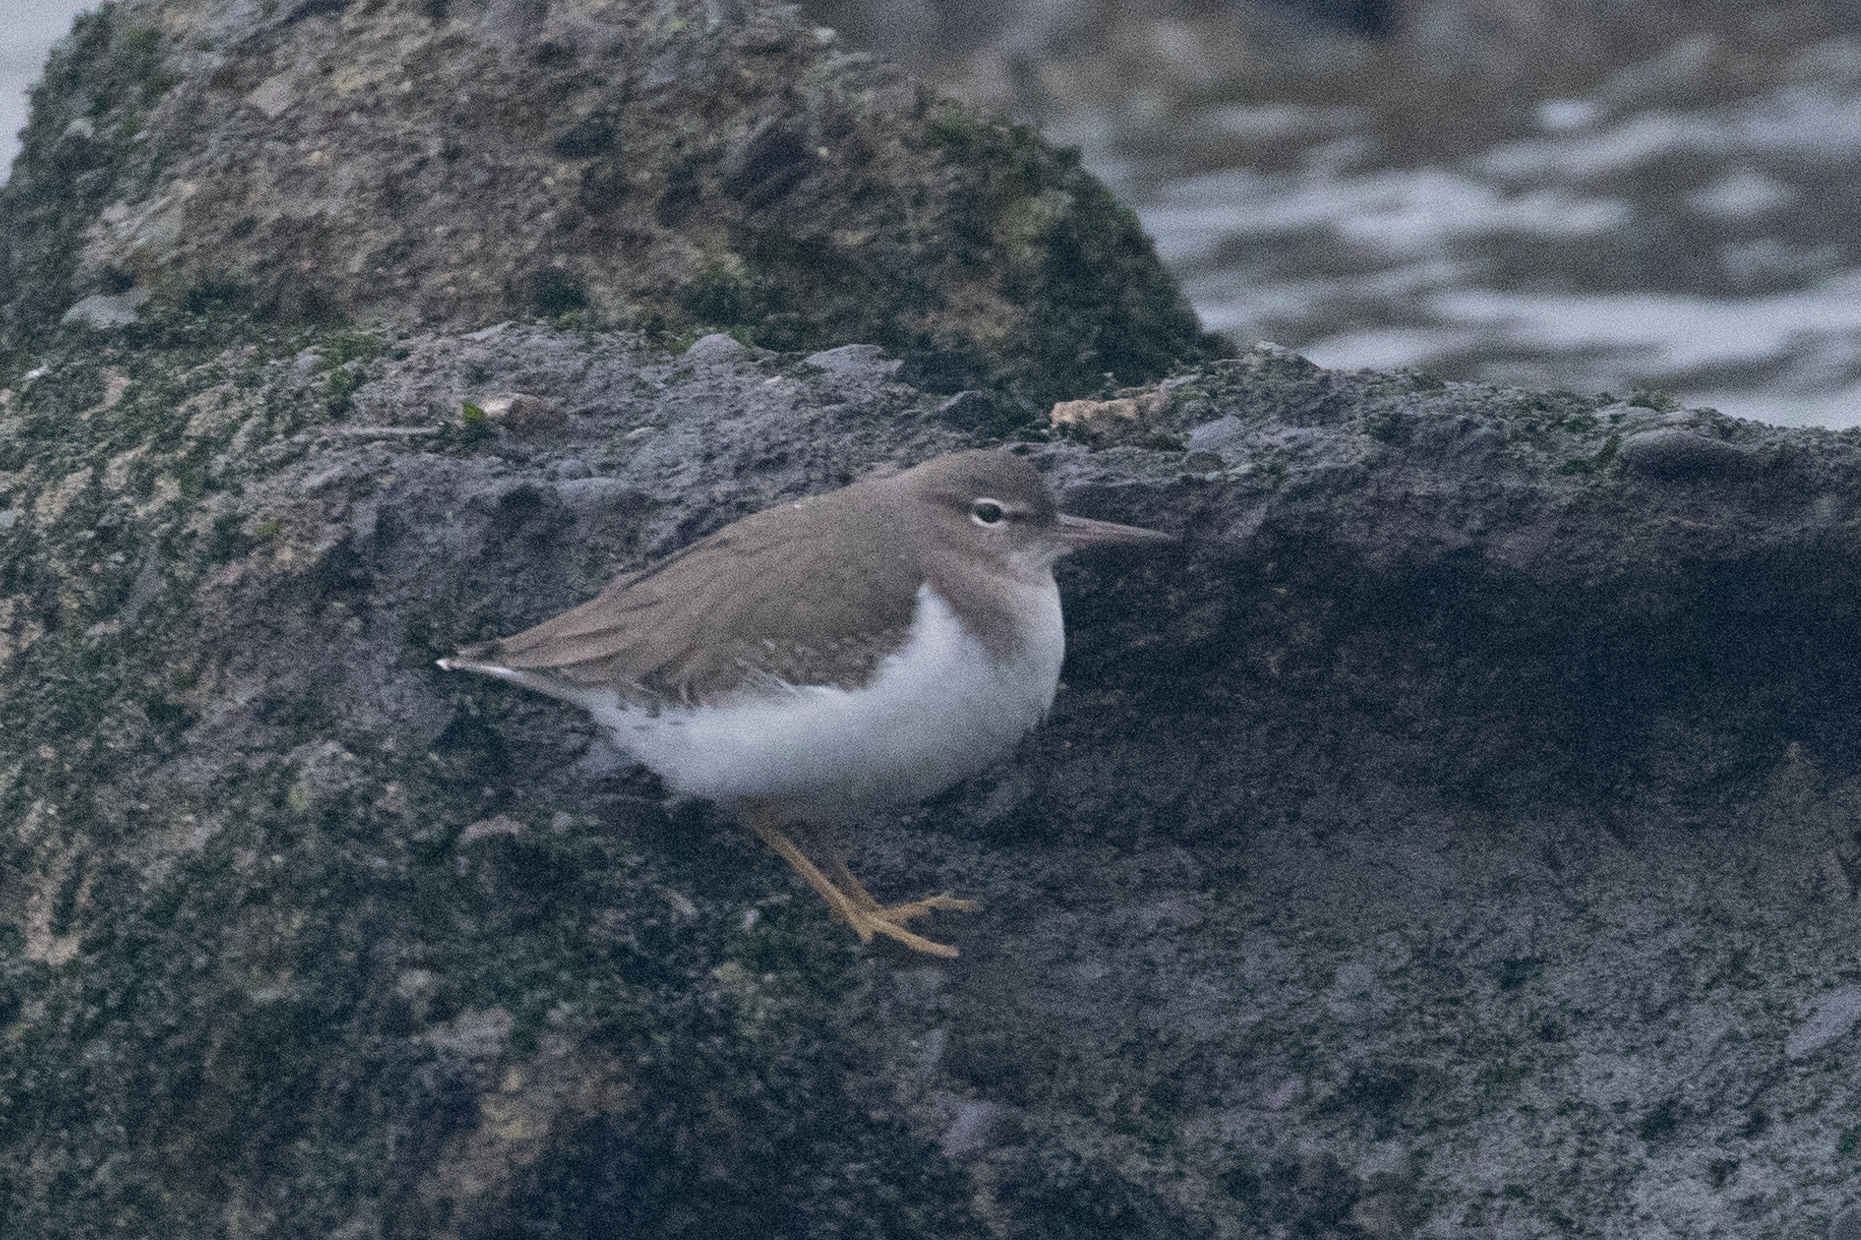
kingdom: Animalia
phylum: Chordata
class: Aves
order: Charadriiformes
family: Scolopacidae
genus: Actitis
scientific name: Actitis macularius
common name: Spotted sandpiper
